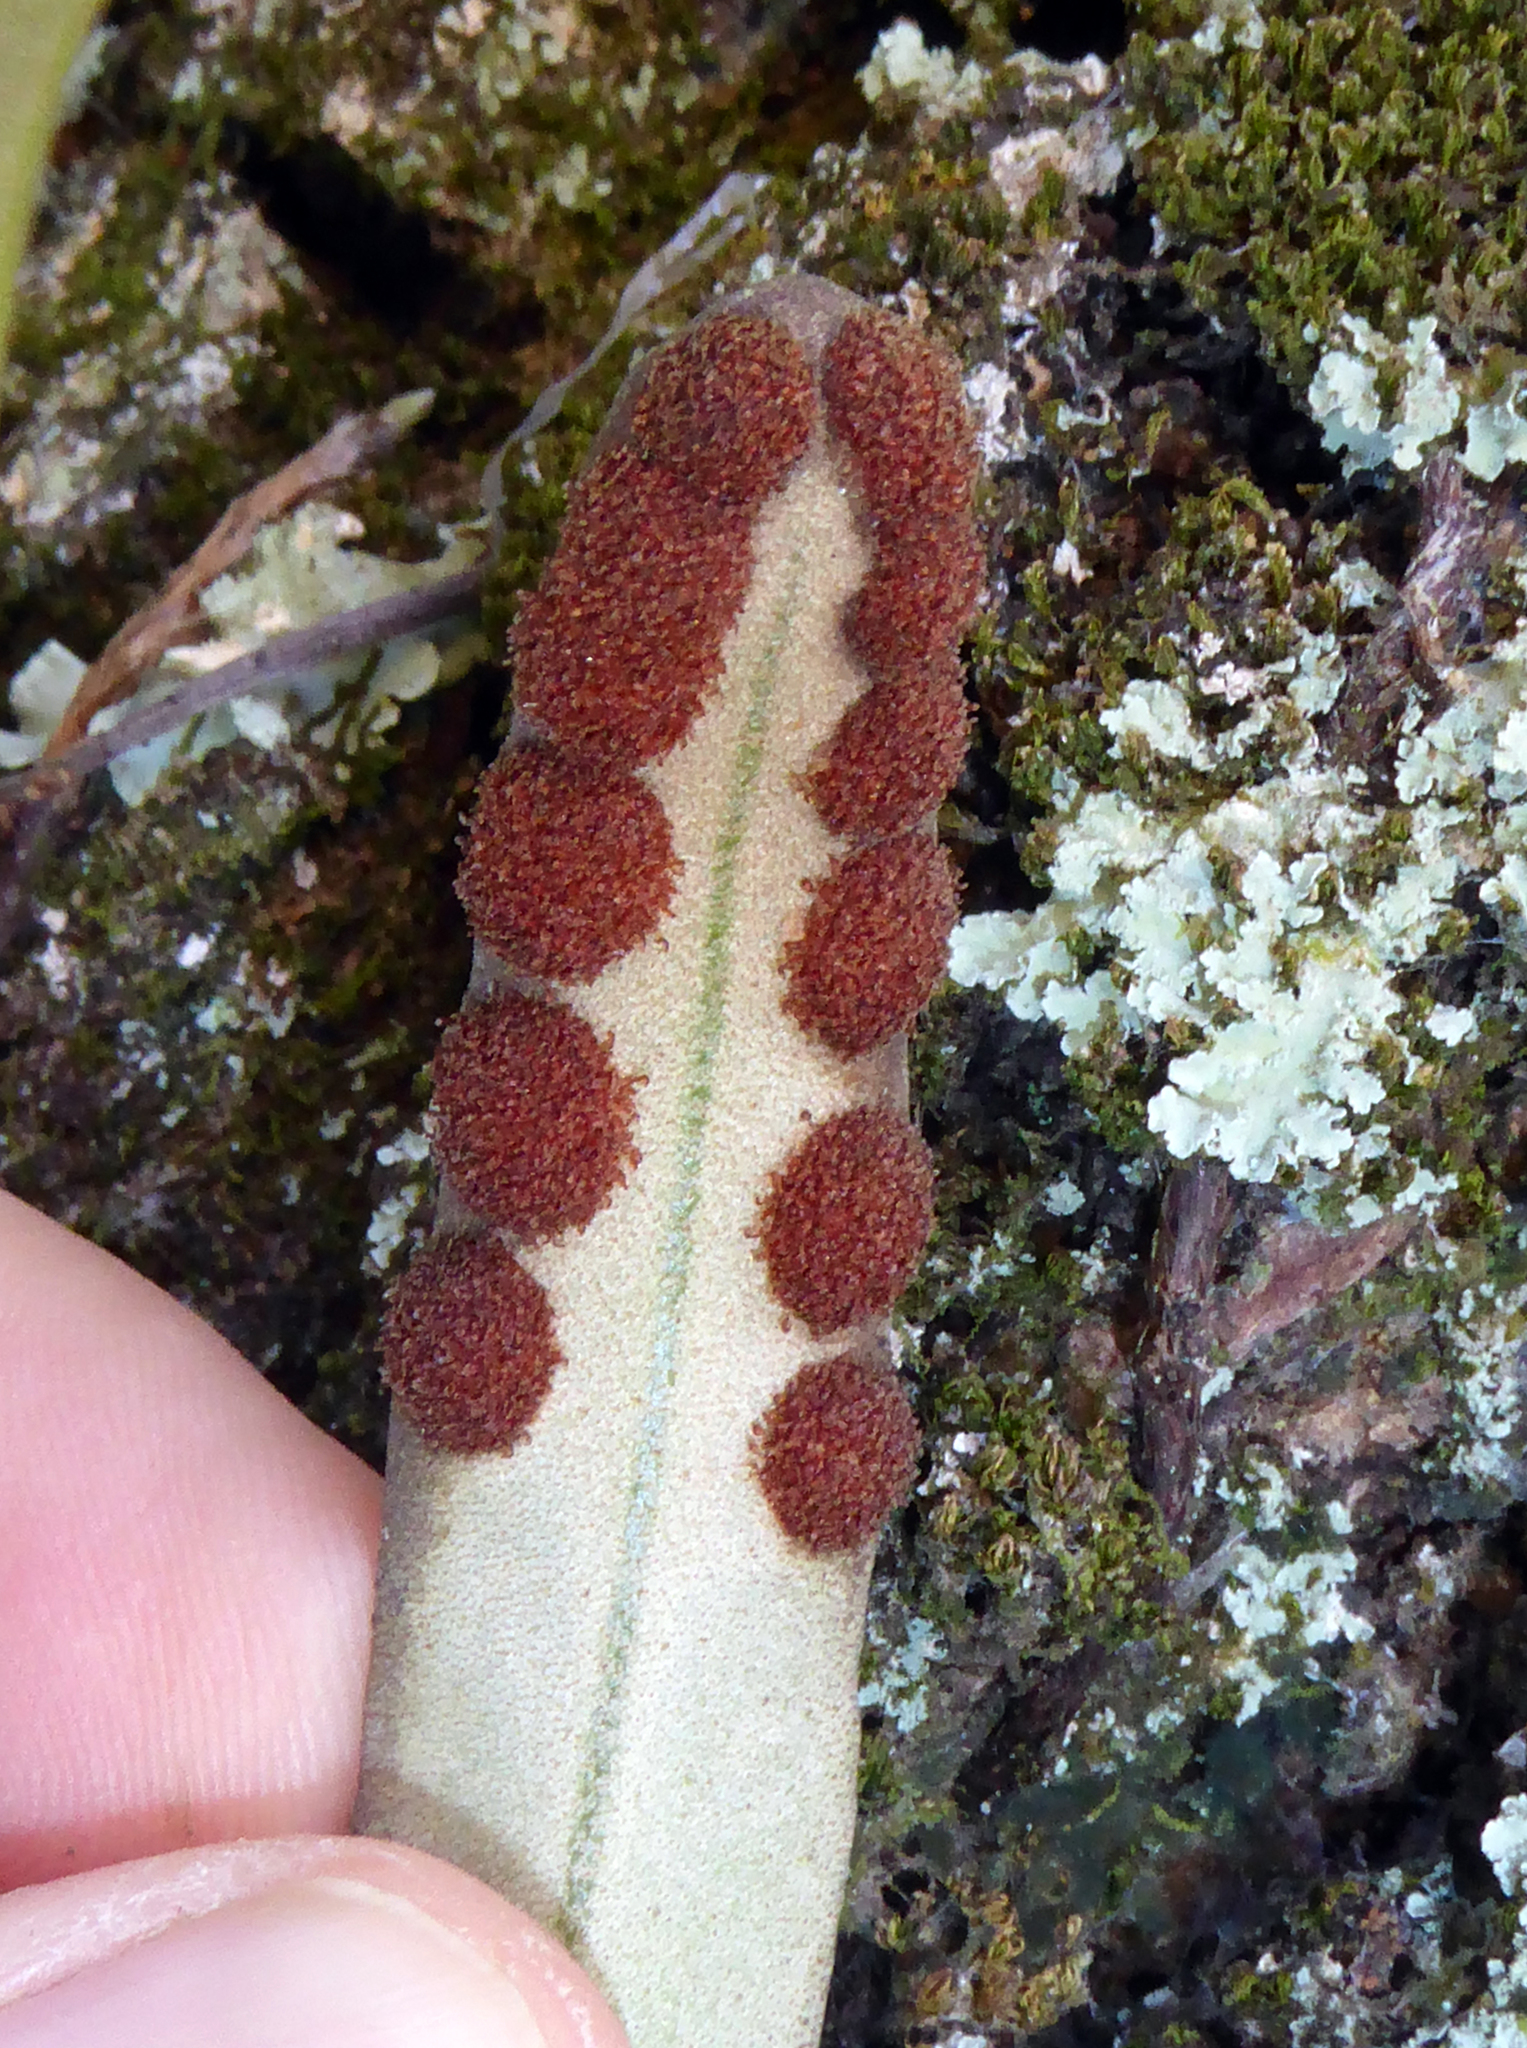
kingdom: Plantae
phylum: Tracheophyta
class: Polypodiopsida
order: Polypodiales
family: Polypodiaceae
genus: Pyrrosia
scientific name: Pyrrosia serpens
